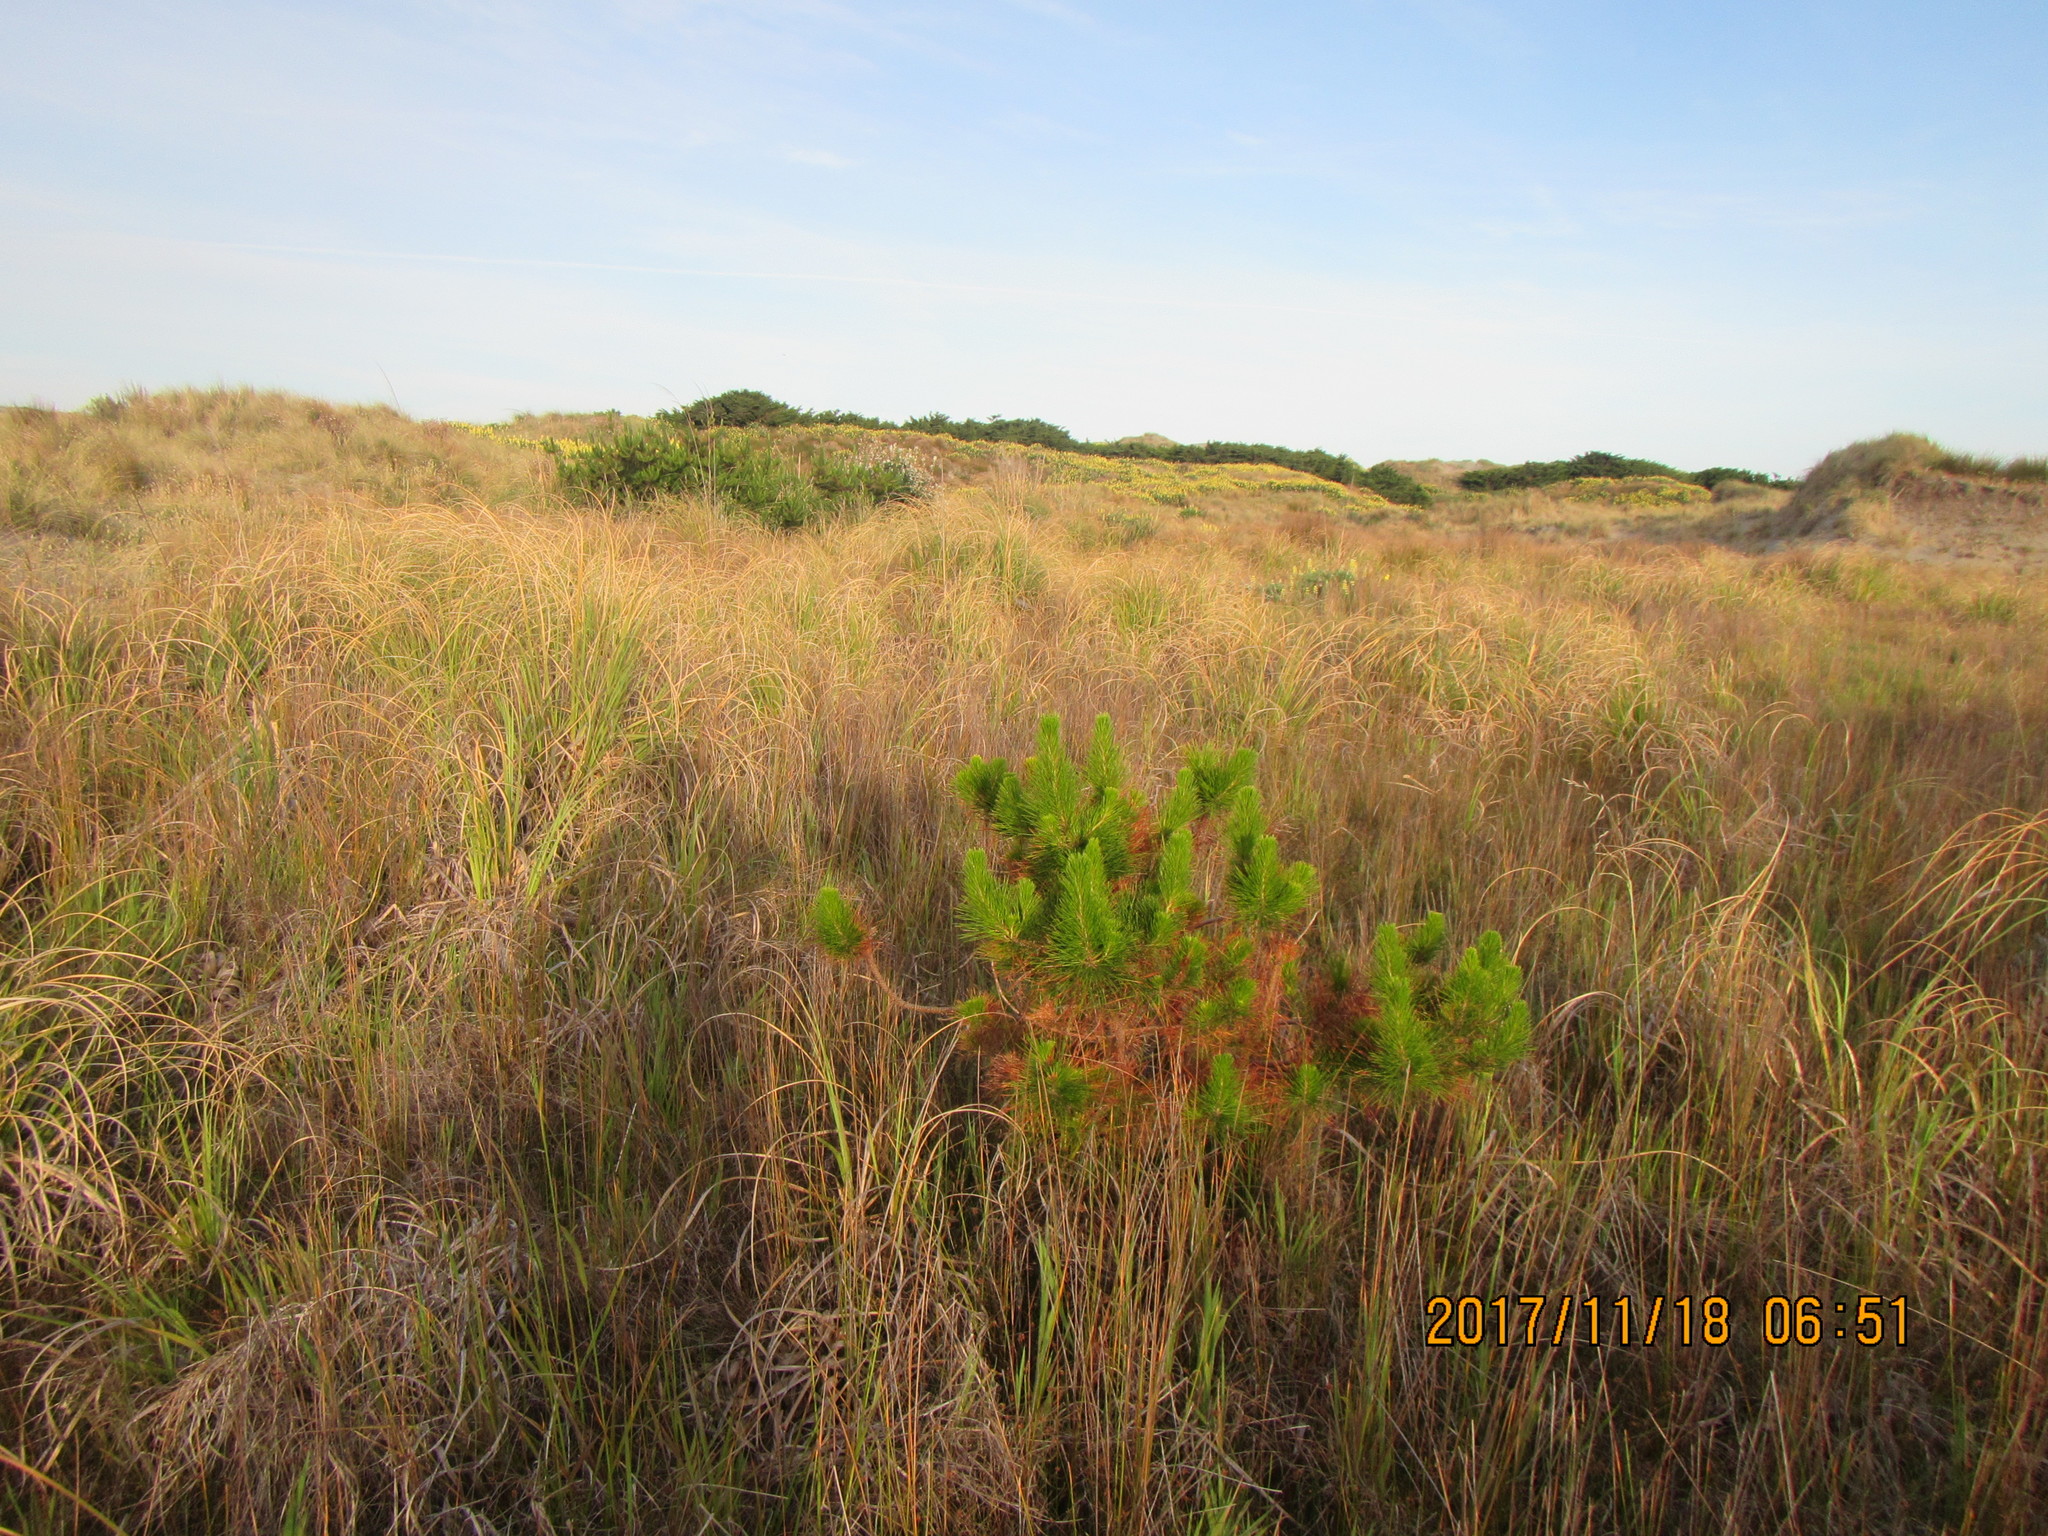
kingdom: Plantae
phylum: Tracheophyta
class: Pinopsida
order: Pinales
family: Pinaceae
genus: Pinus
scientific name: Pinus radiata
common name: Monterey pine
